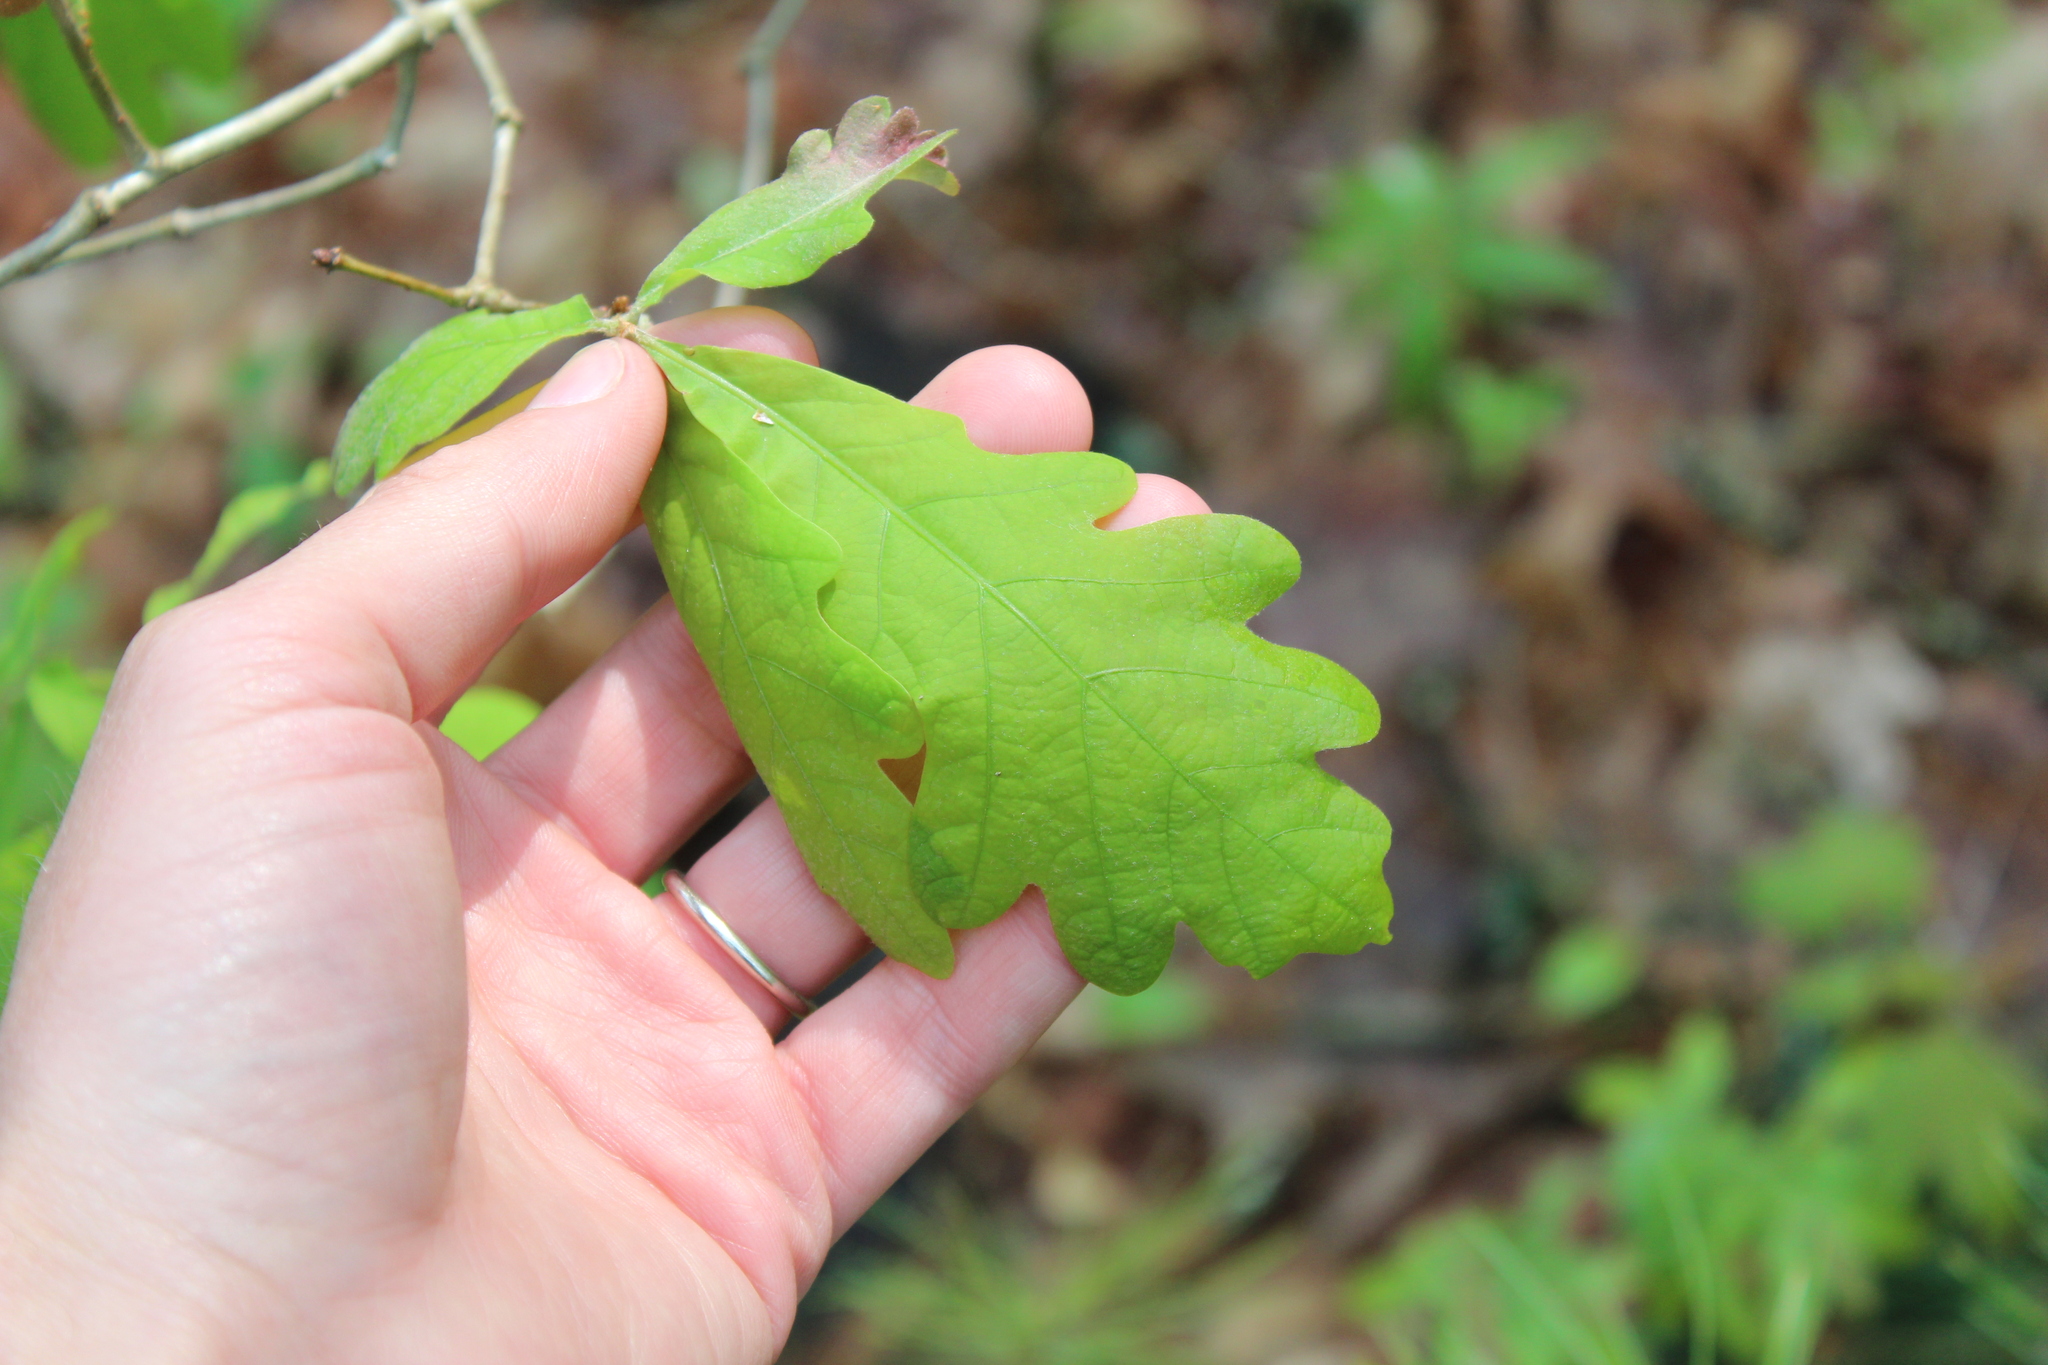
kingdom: Plantae
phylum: Tracheophyta
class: Magnoliopsida
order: Fagales
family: Fagaceae
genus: Quercus
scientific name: Quercus alba
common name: White oak
